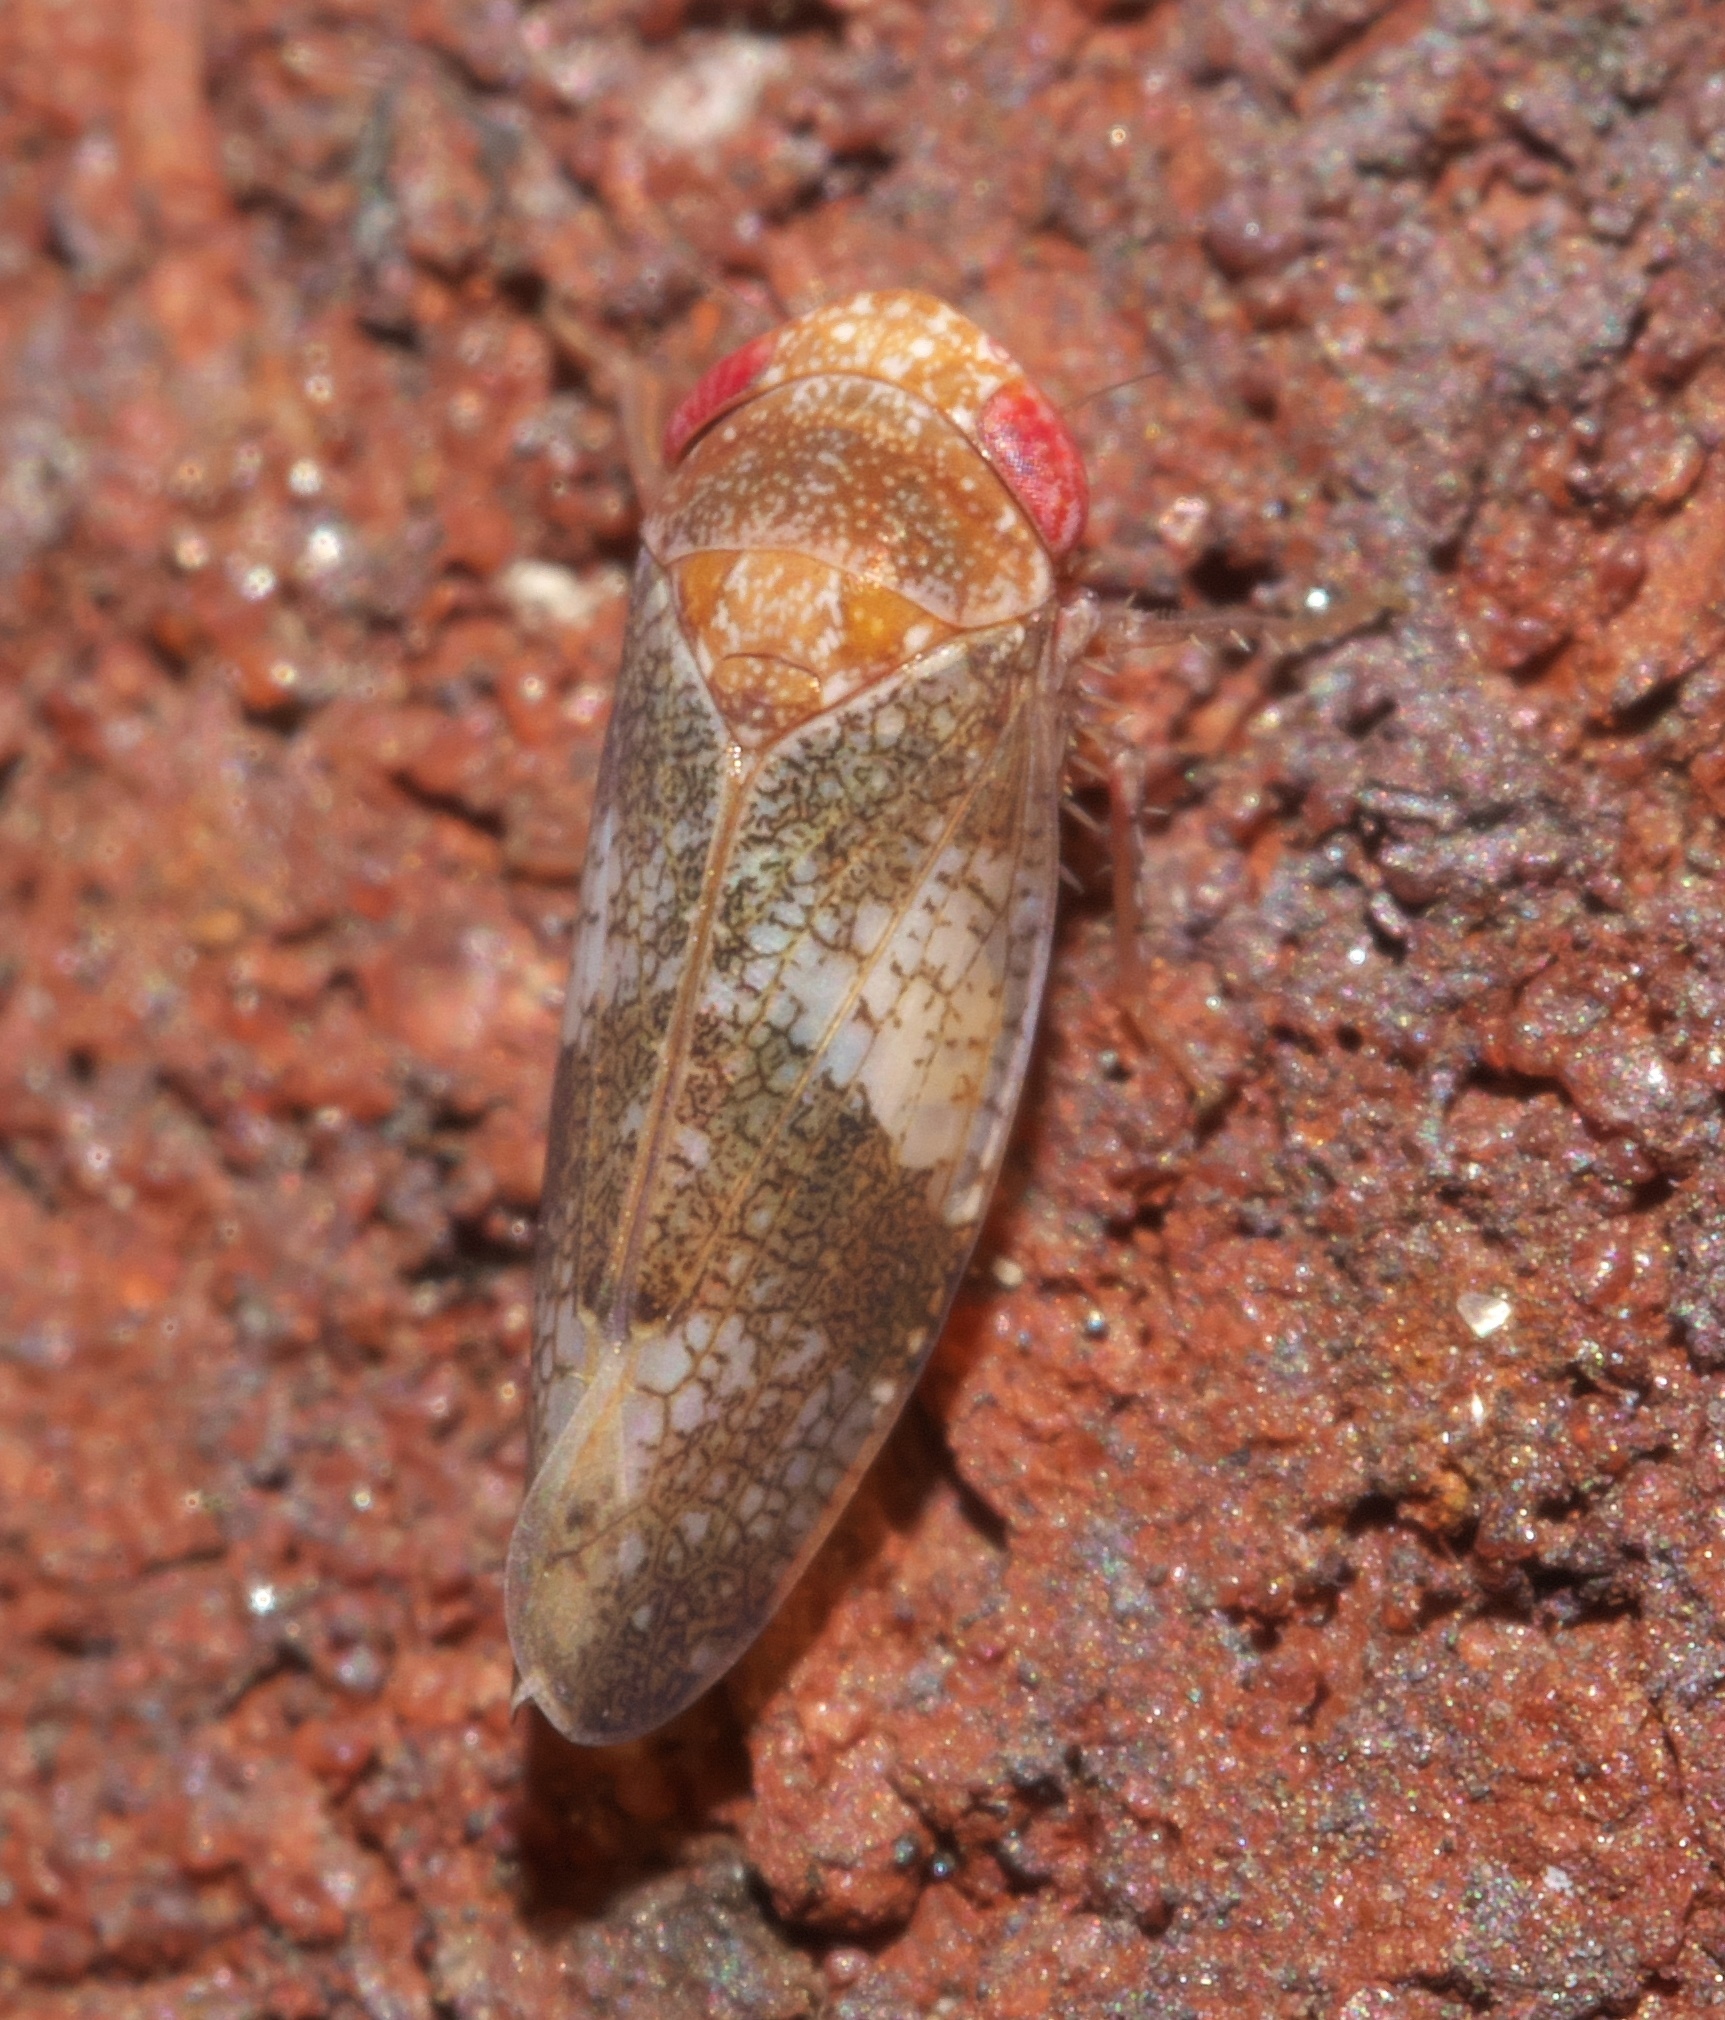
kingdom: Animalia
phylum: Arthropoda
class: Insecta
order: Hemiptera
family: Cicadellidae
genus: Norvellina
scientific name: Norvellina helenae
